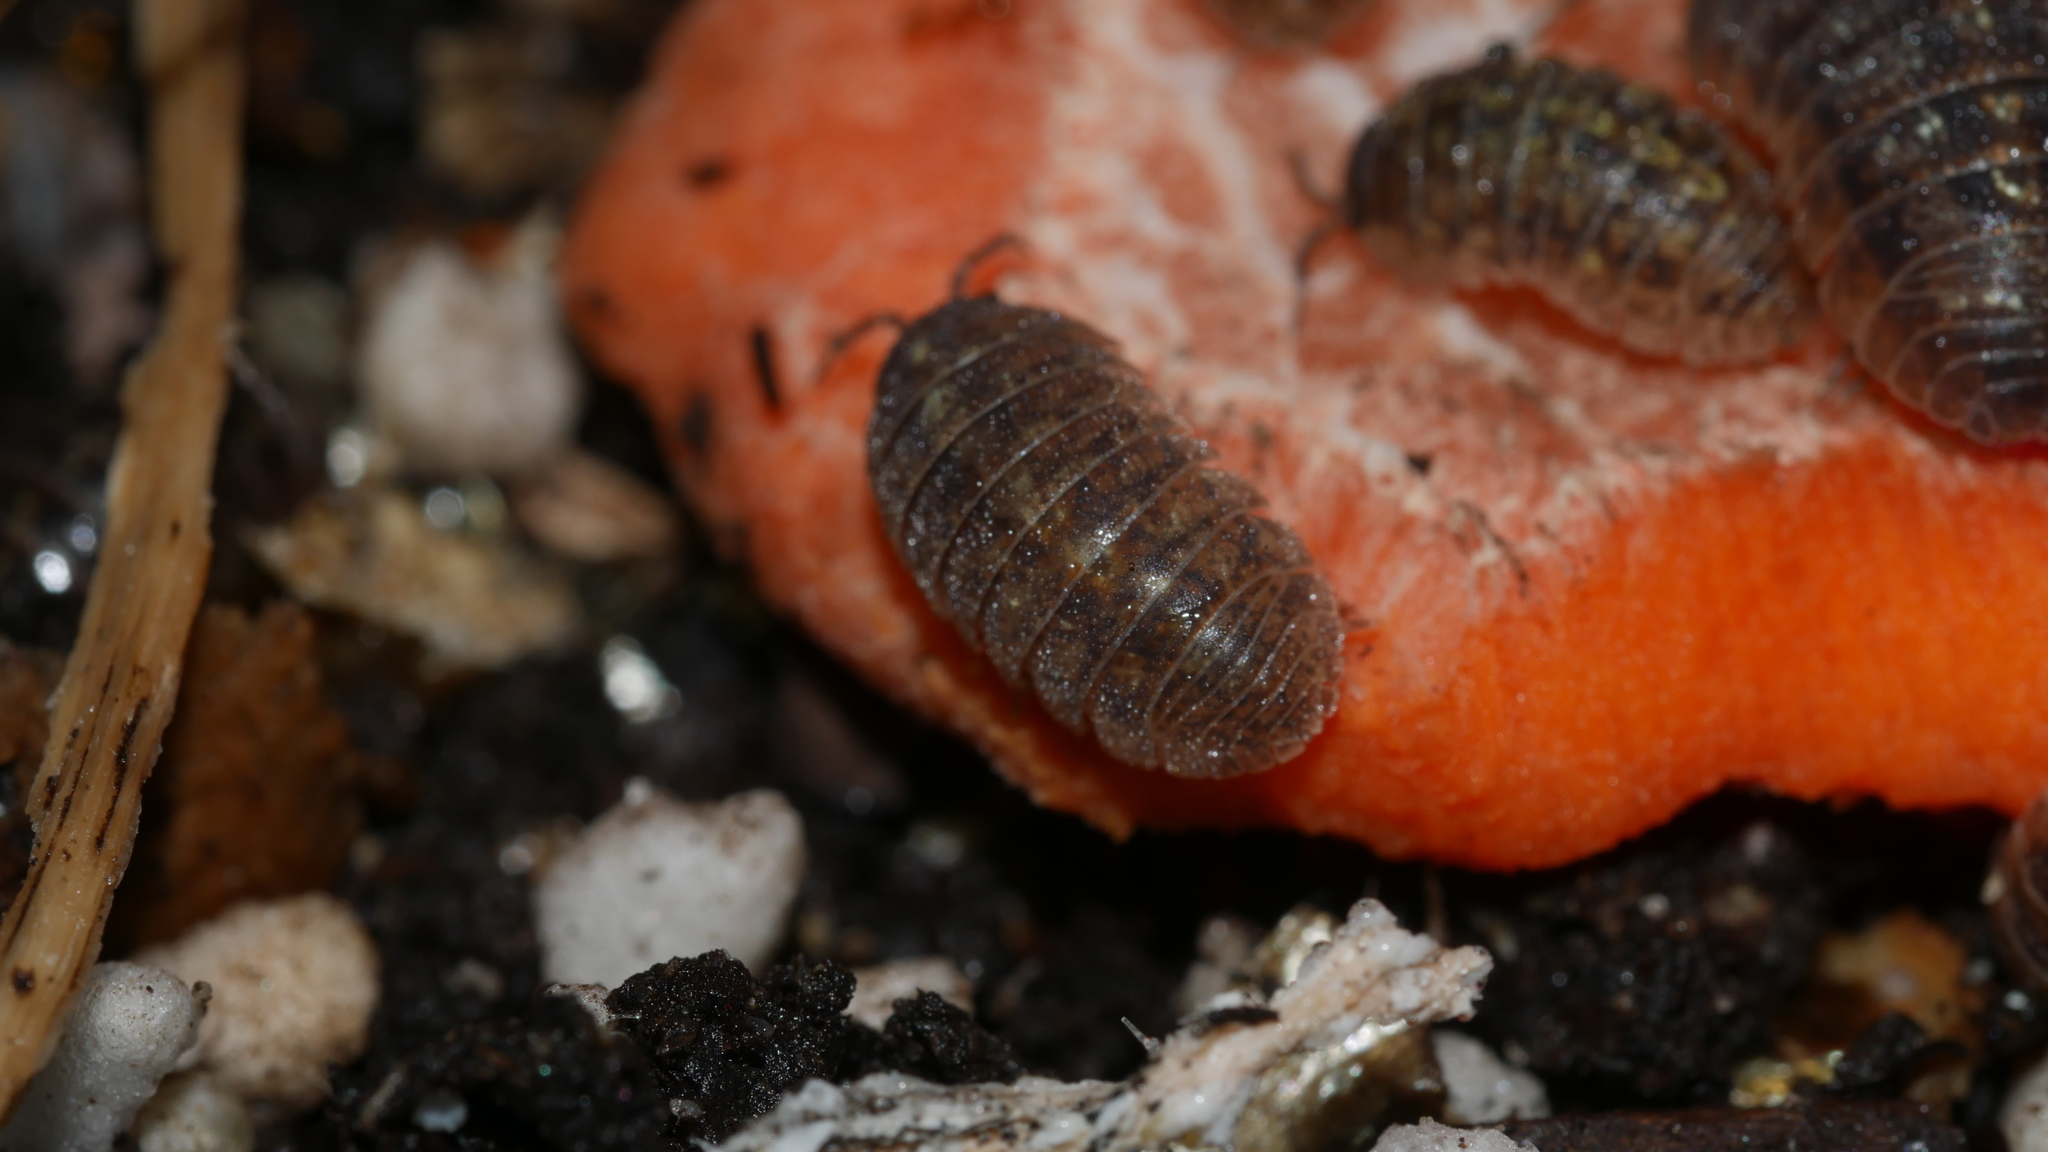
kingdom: Animalia
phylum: Arthropoda
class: Malacostraca
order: Isopoda
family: Armadillidiidae
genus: Armadillidium
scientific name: Armadillidium vulgare
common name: Common pill woodlouse
